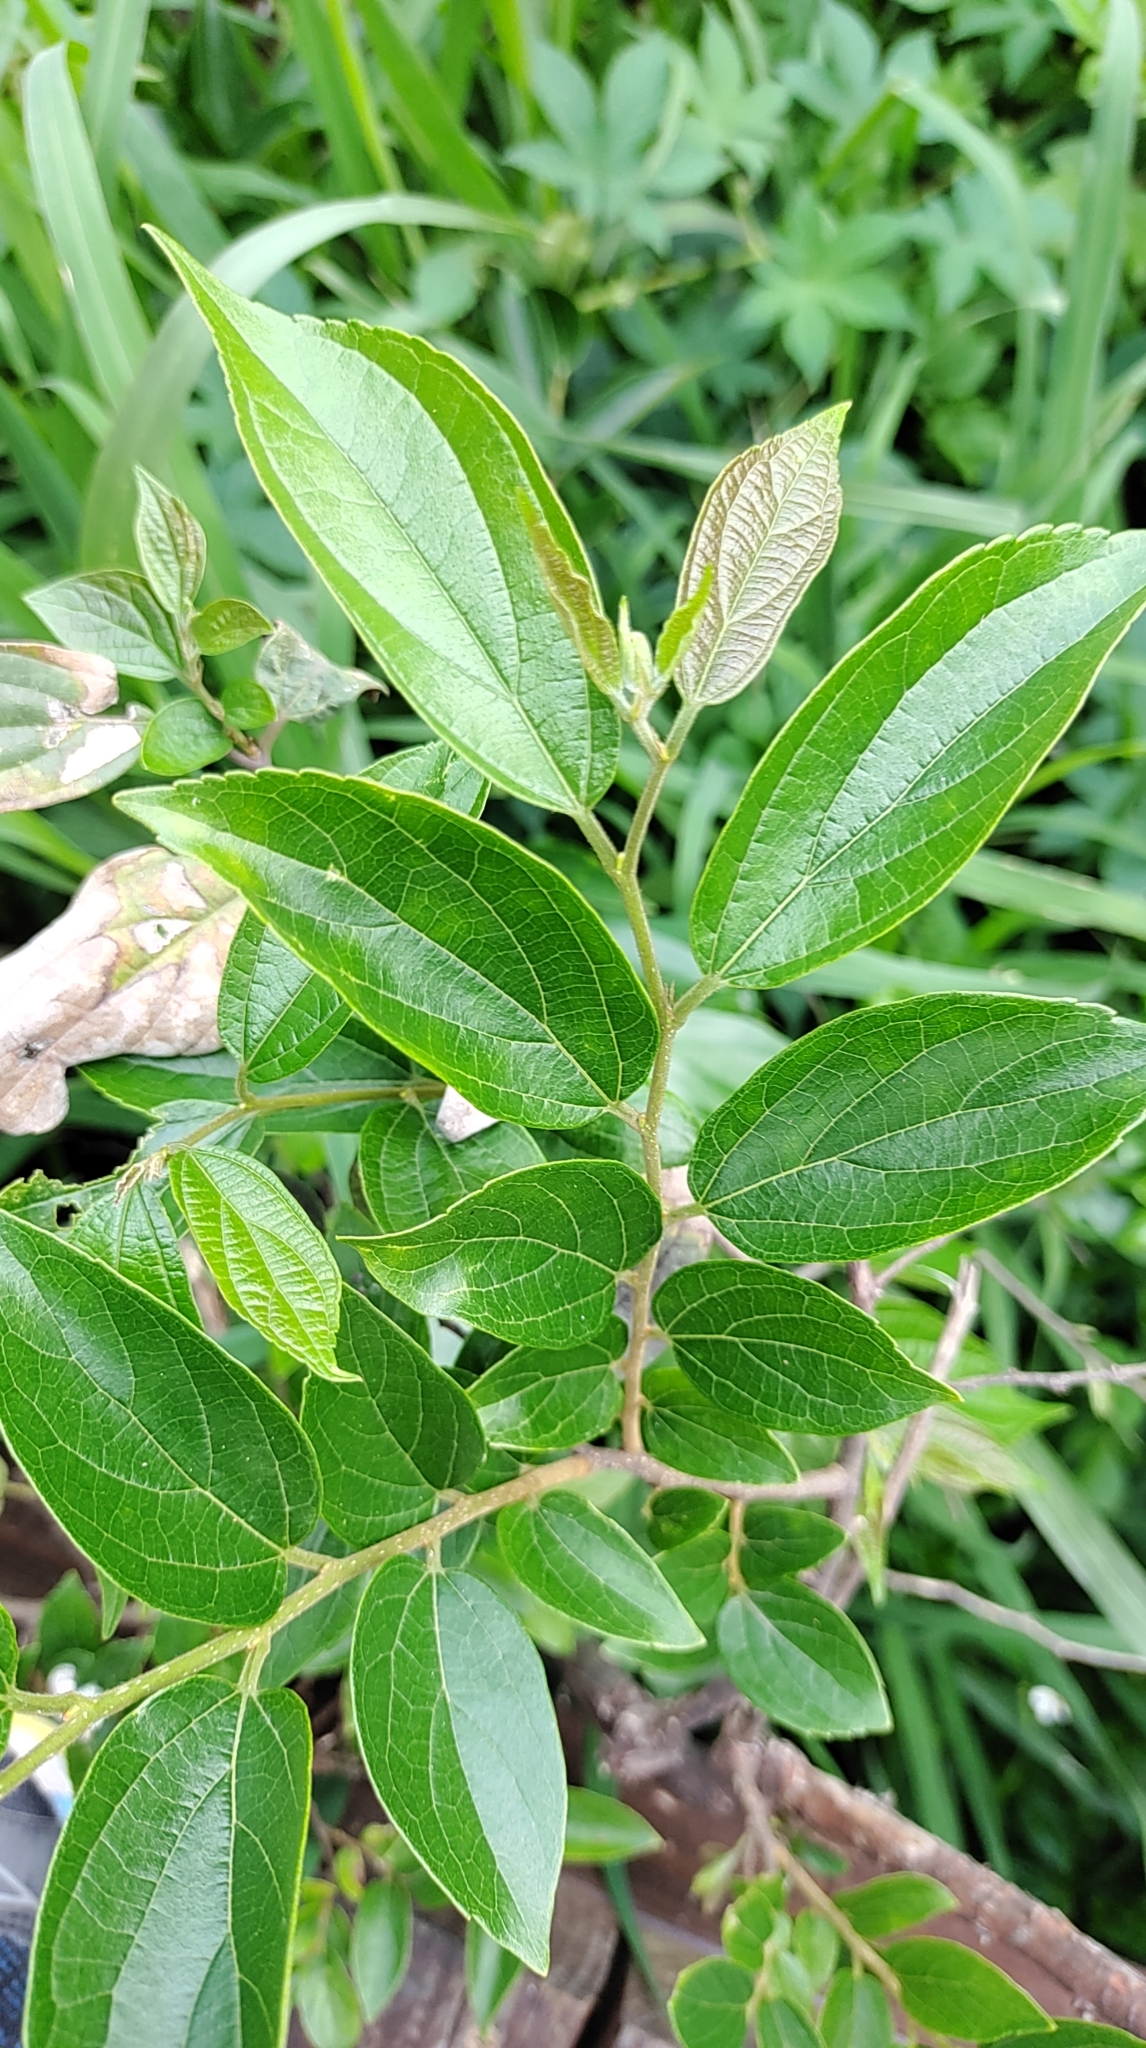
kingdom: Plantae
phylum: Tracheophyta
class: Magnoliopsida
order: Rosales
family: Cannabaceae
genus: Celtis
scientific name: Celtis sinensis
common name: Chinese hackberry
